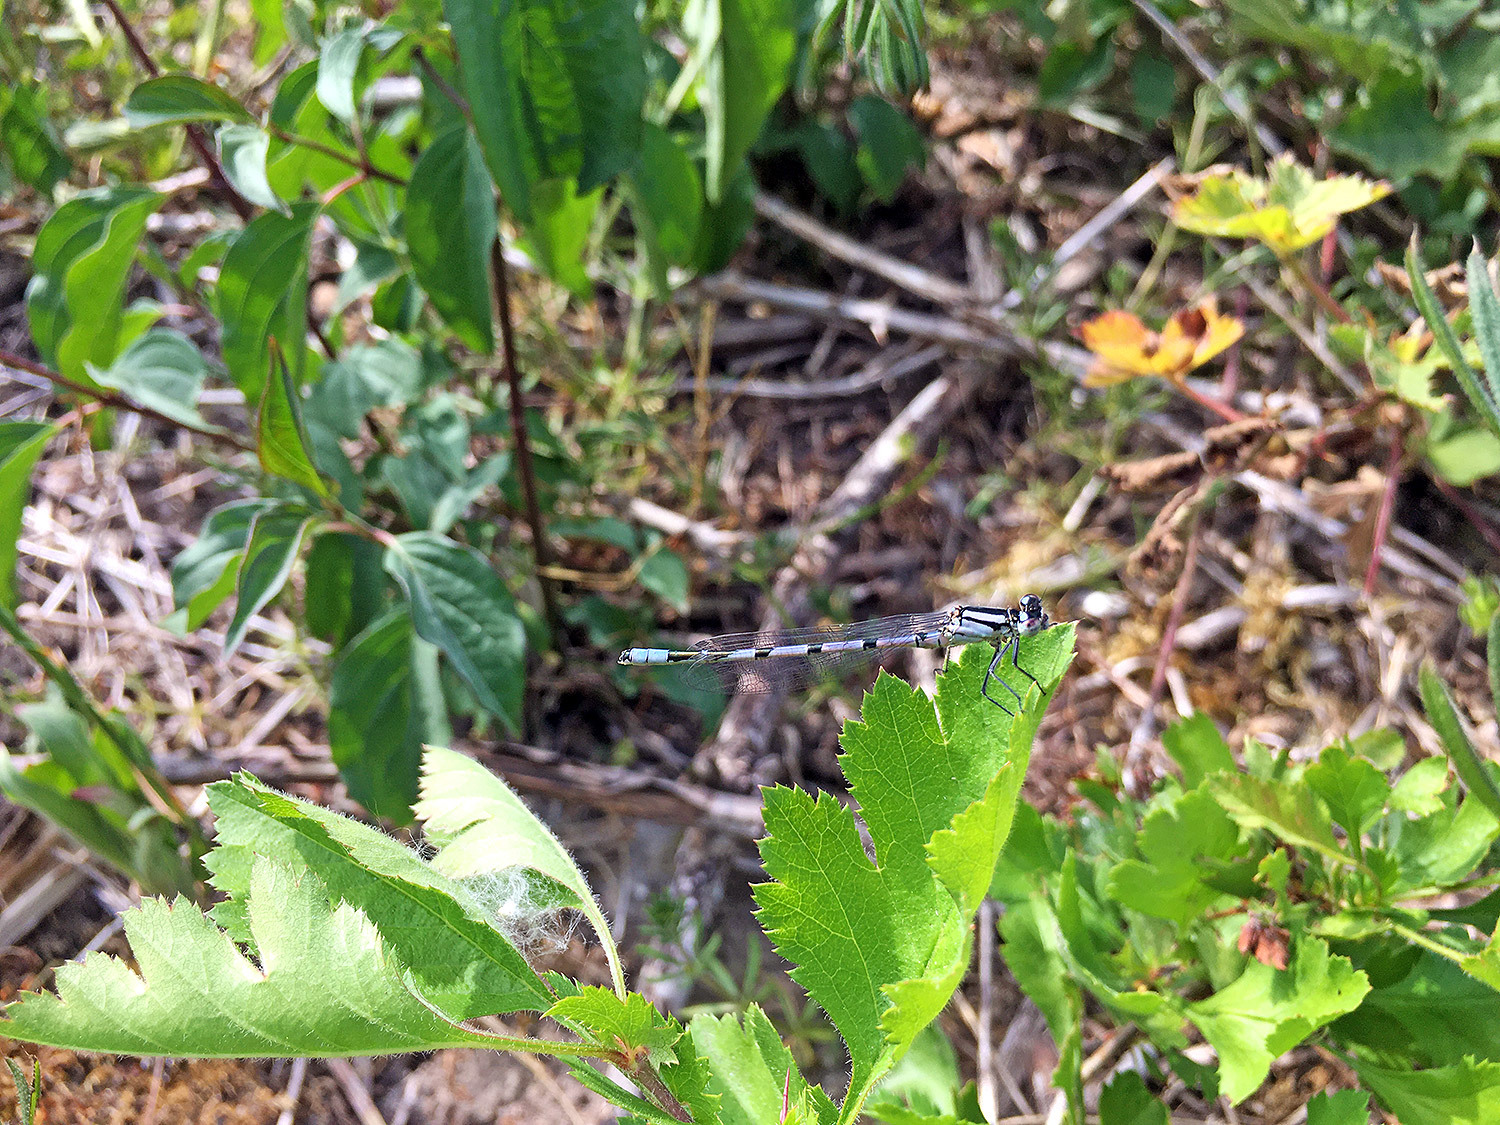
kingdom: Animalia
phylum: Arthropoda
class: Insecta
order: Odonata
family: Coenagrionidae
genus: Enallagma
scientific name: Enallagma cyathigerum
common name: Common blue damselfly
